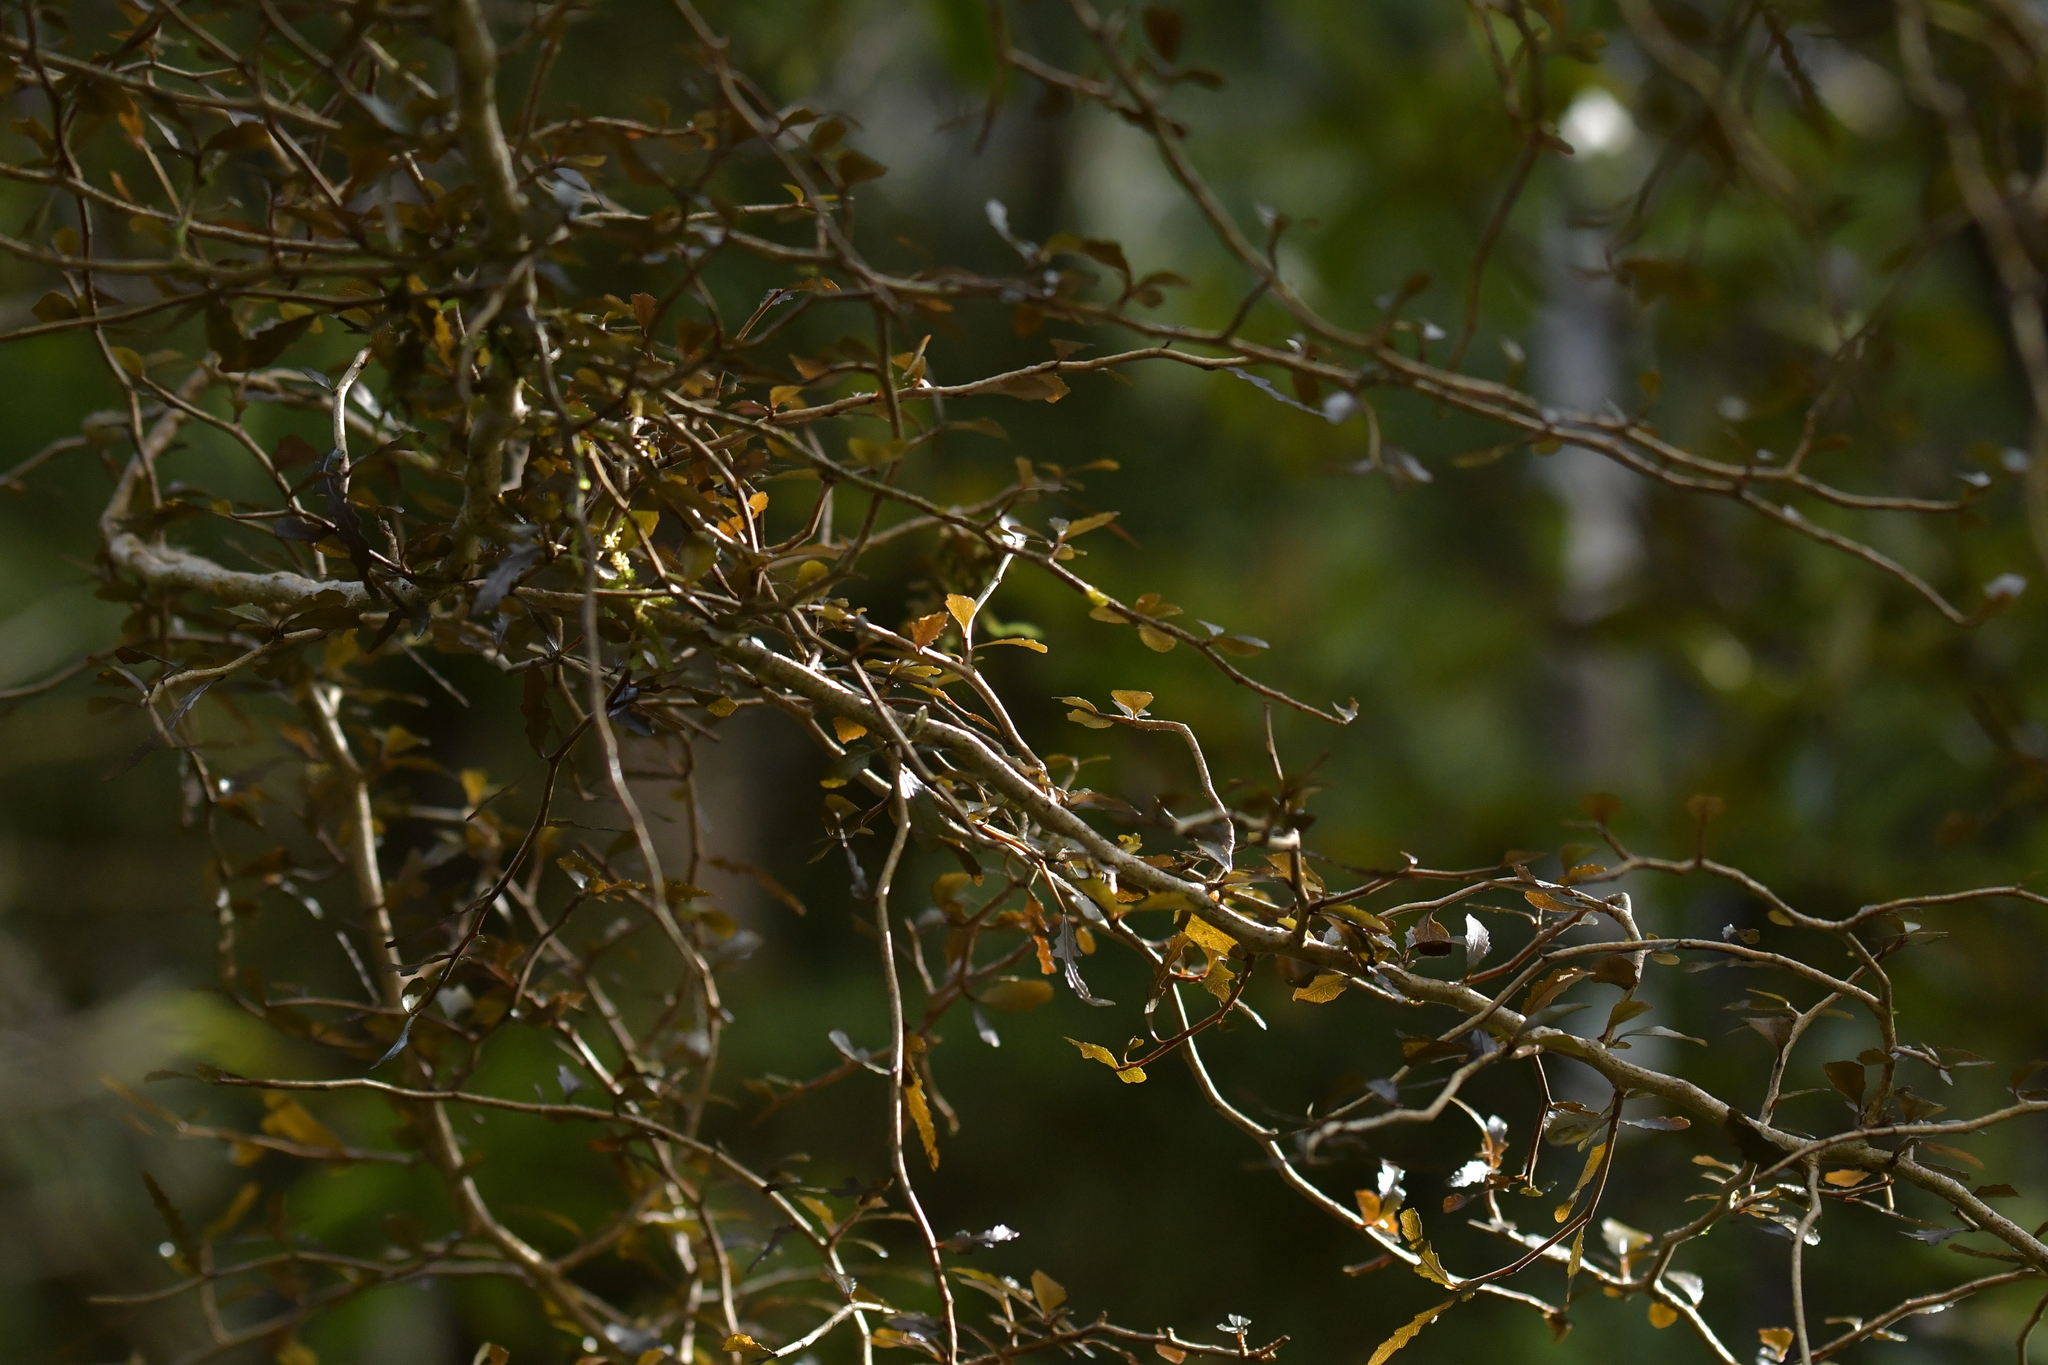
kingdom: Plantae
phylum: Tracheophyta
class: Magnoliopsida
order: Oxalidales
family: Elaeocarpaceae
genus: Elaeocarpus
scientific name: Elaeocarpus hookerianus
